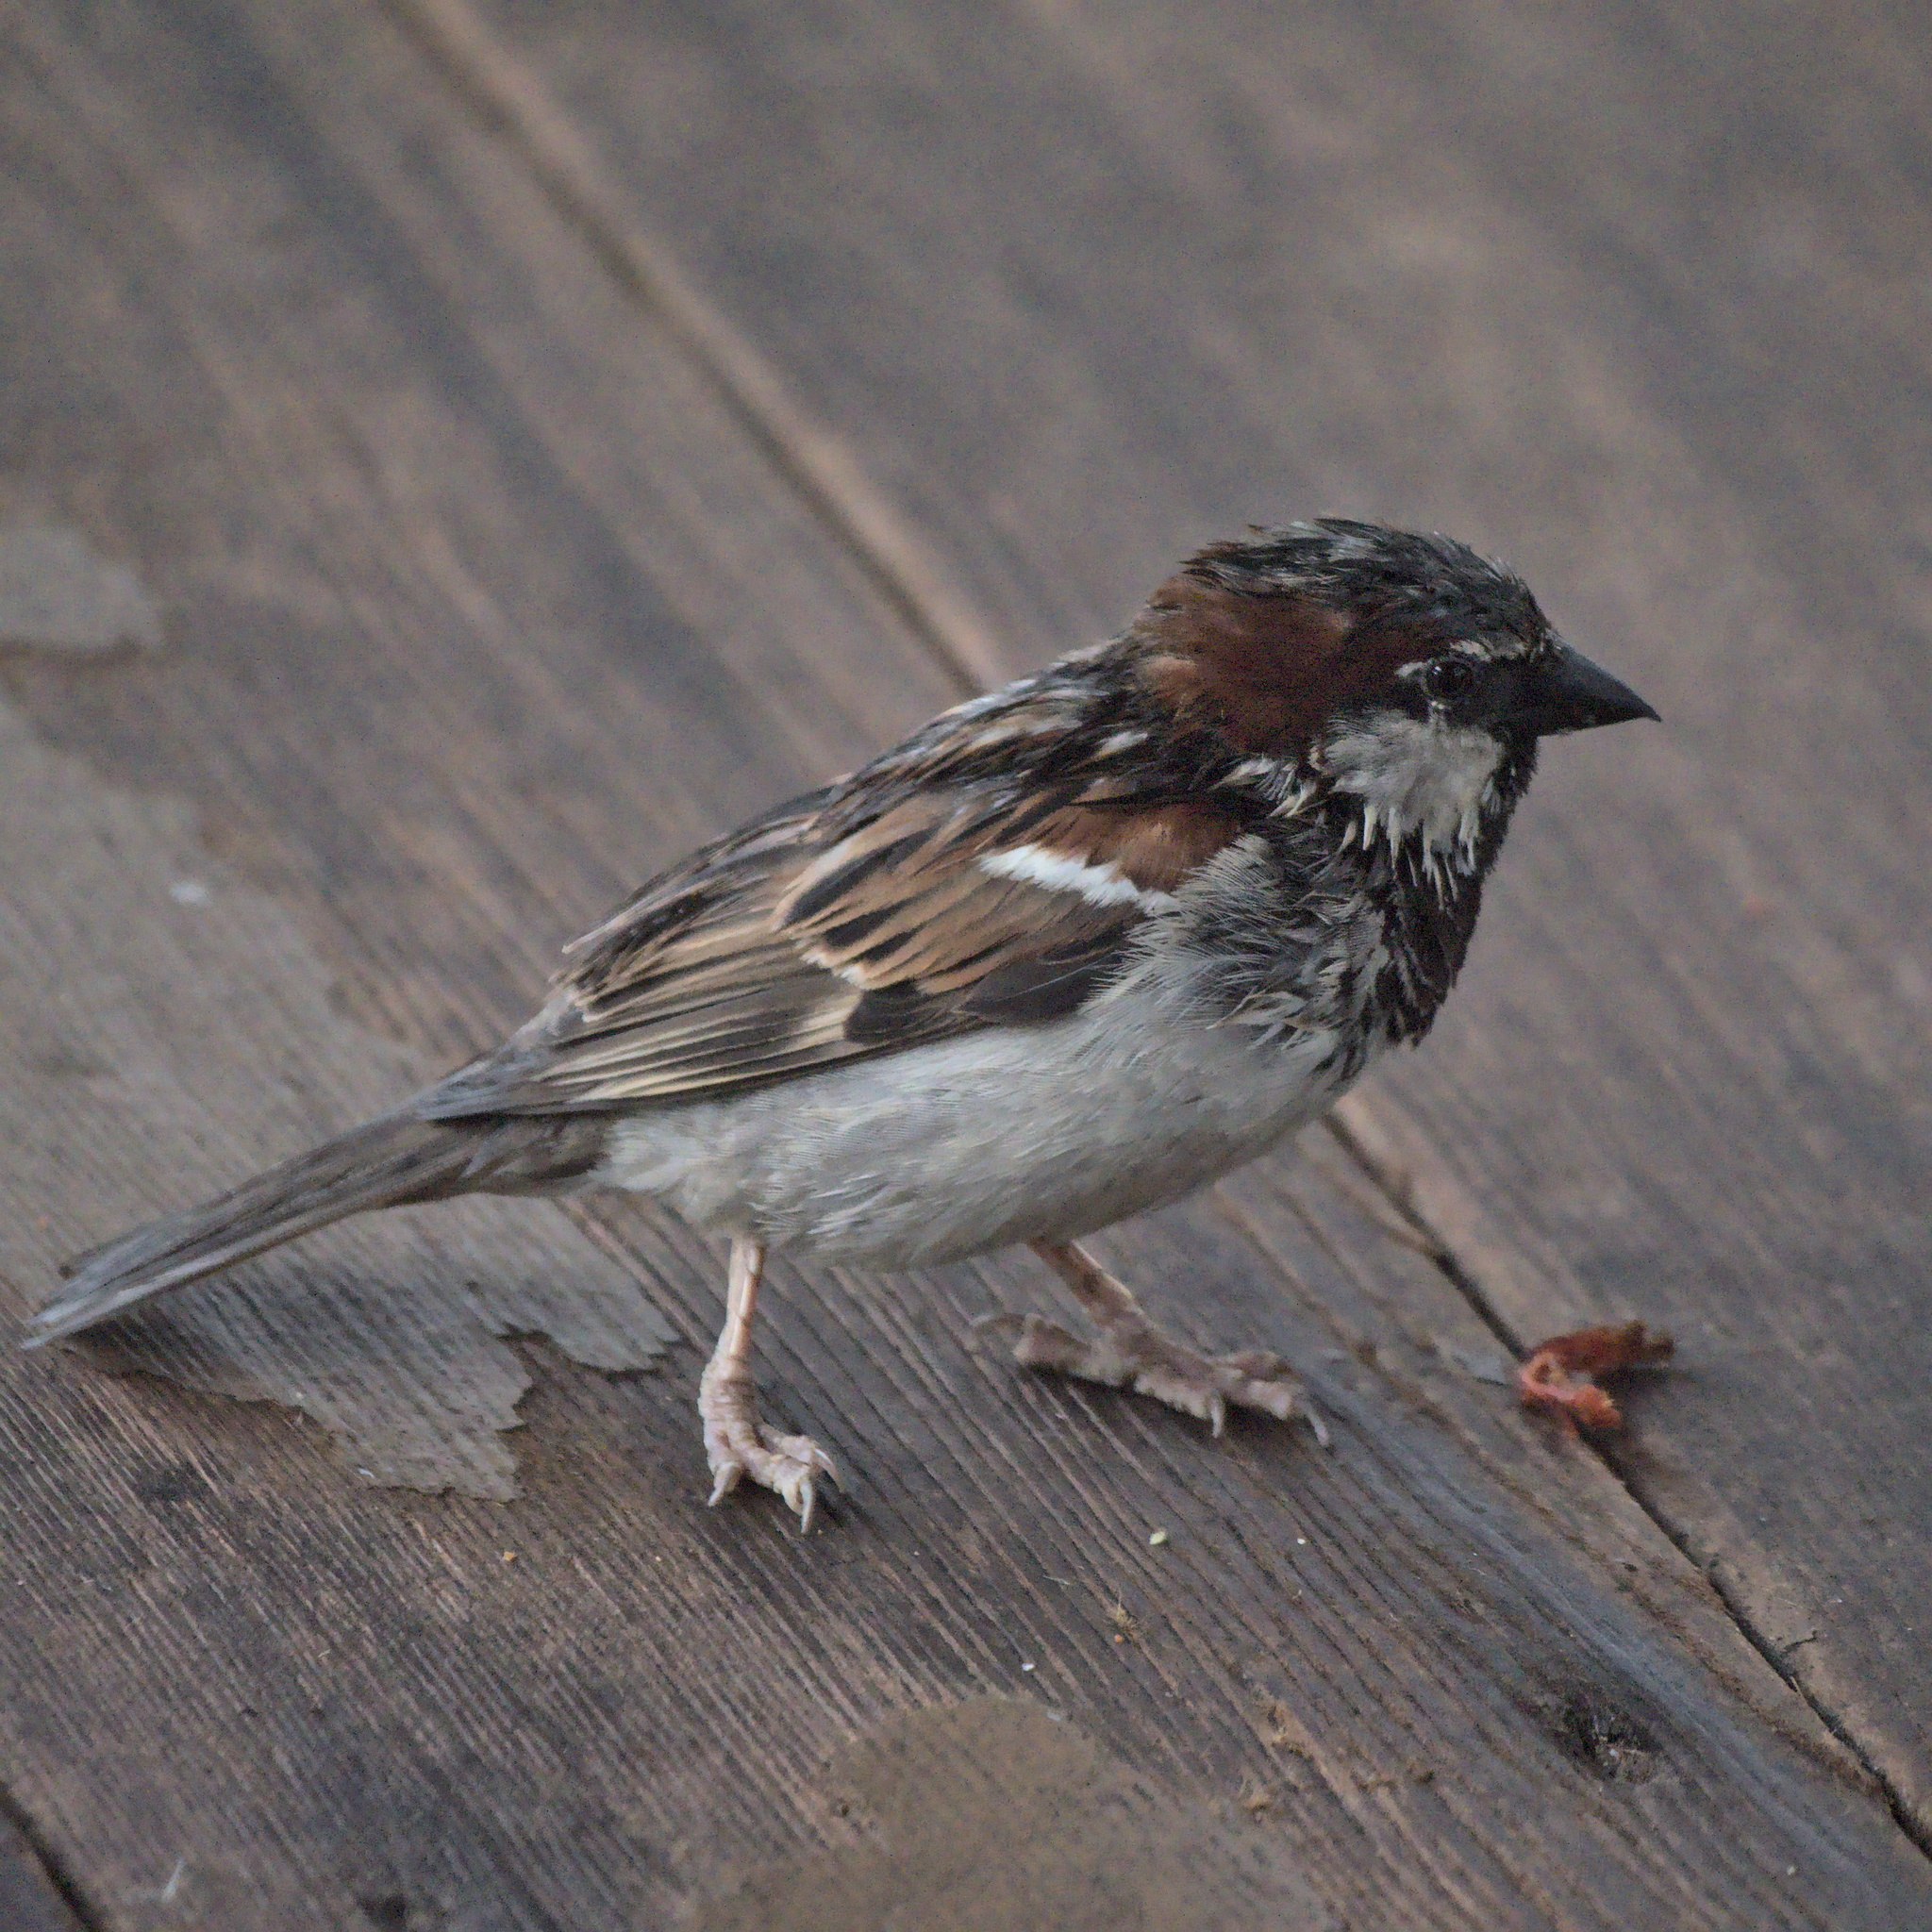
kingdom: Animalia
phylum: Chordata
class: Aves
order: Passeriformes
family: Passeridae
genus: Passer
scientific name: Passer domesticus
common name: House sparrow
